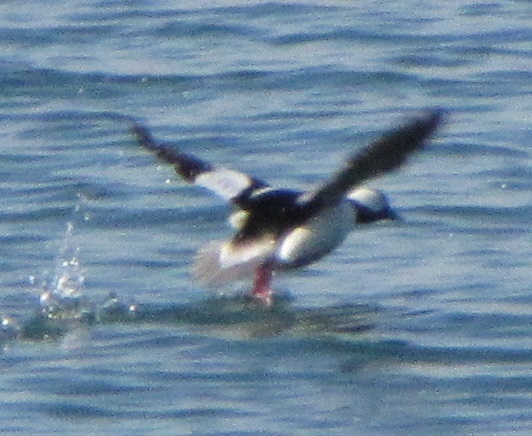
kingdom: Animalia
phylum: Chordata
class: Aves
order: Anseriformes
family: Anatidae
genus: Bucephala
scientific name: Bucephala albeola
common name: Bufflehead
